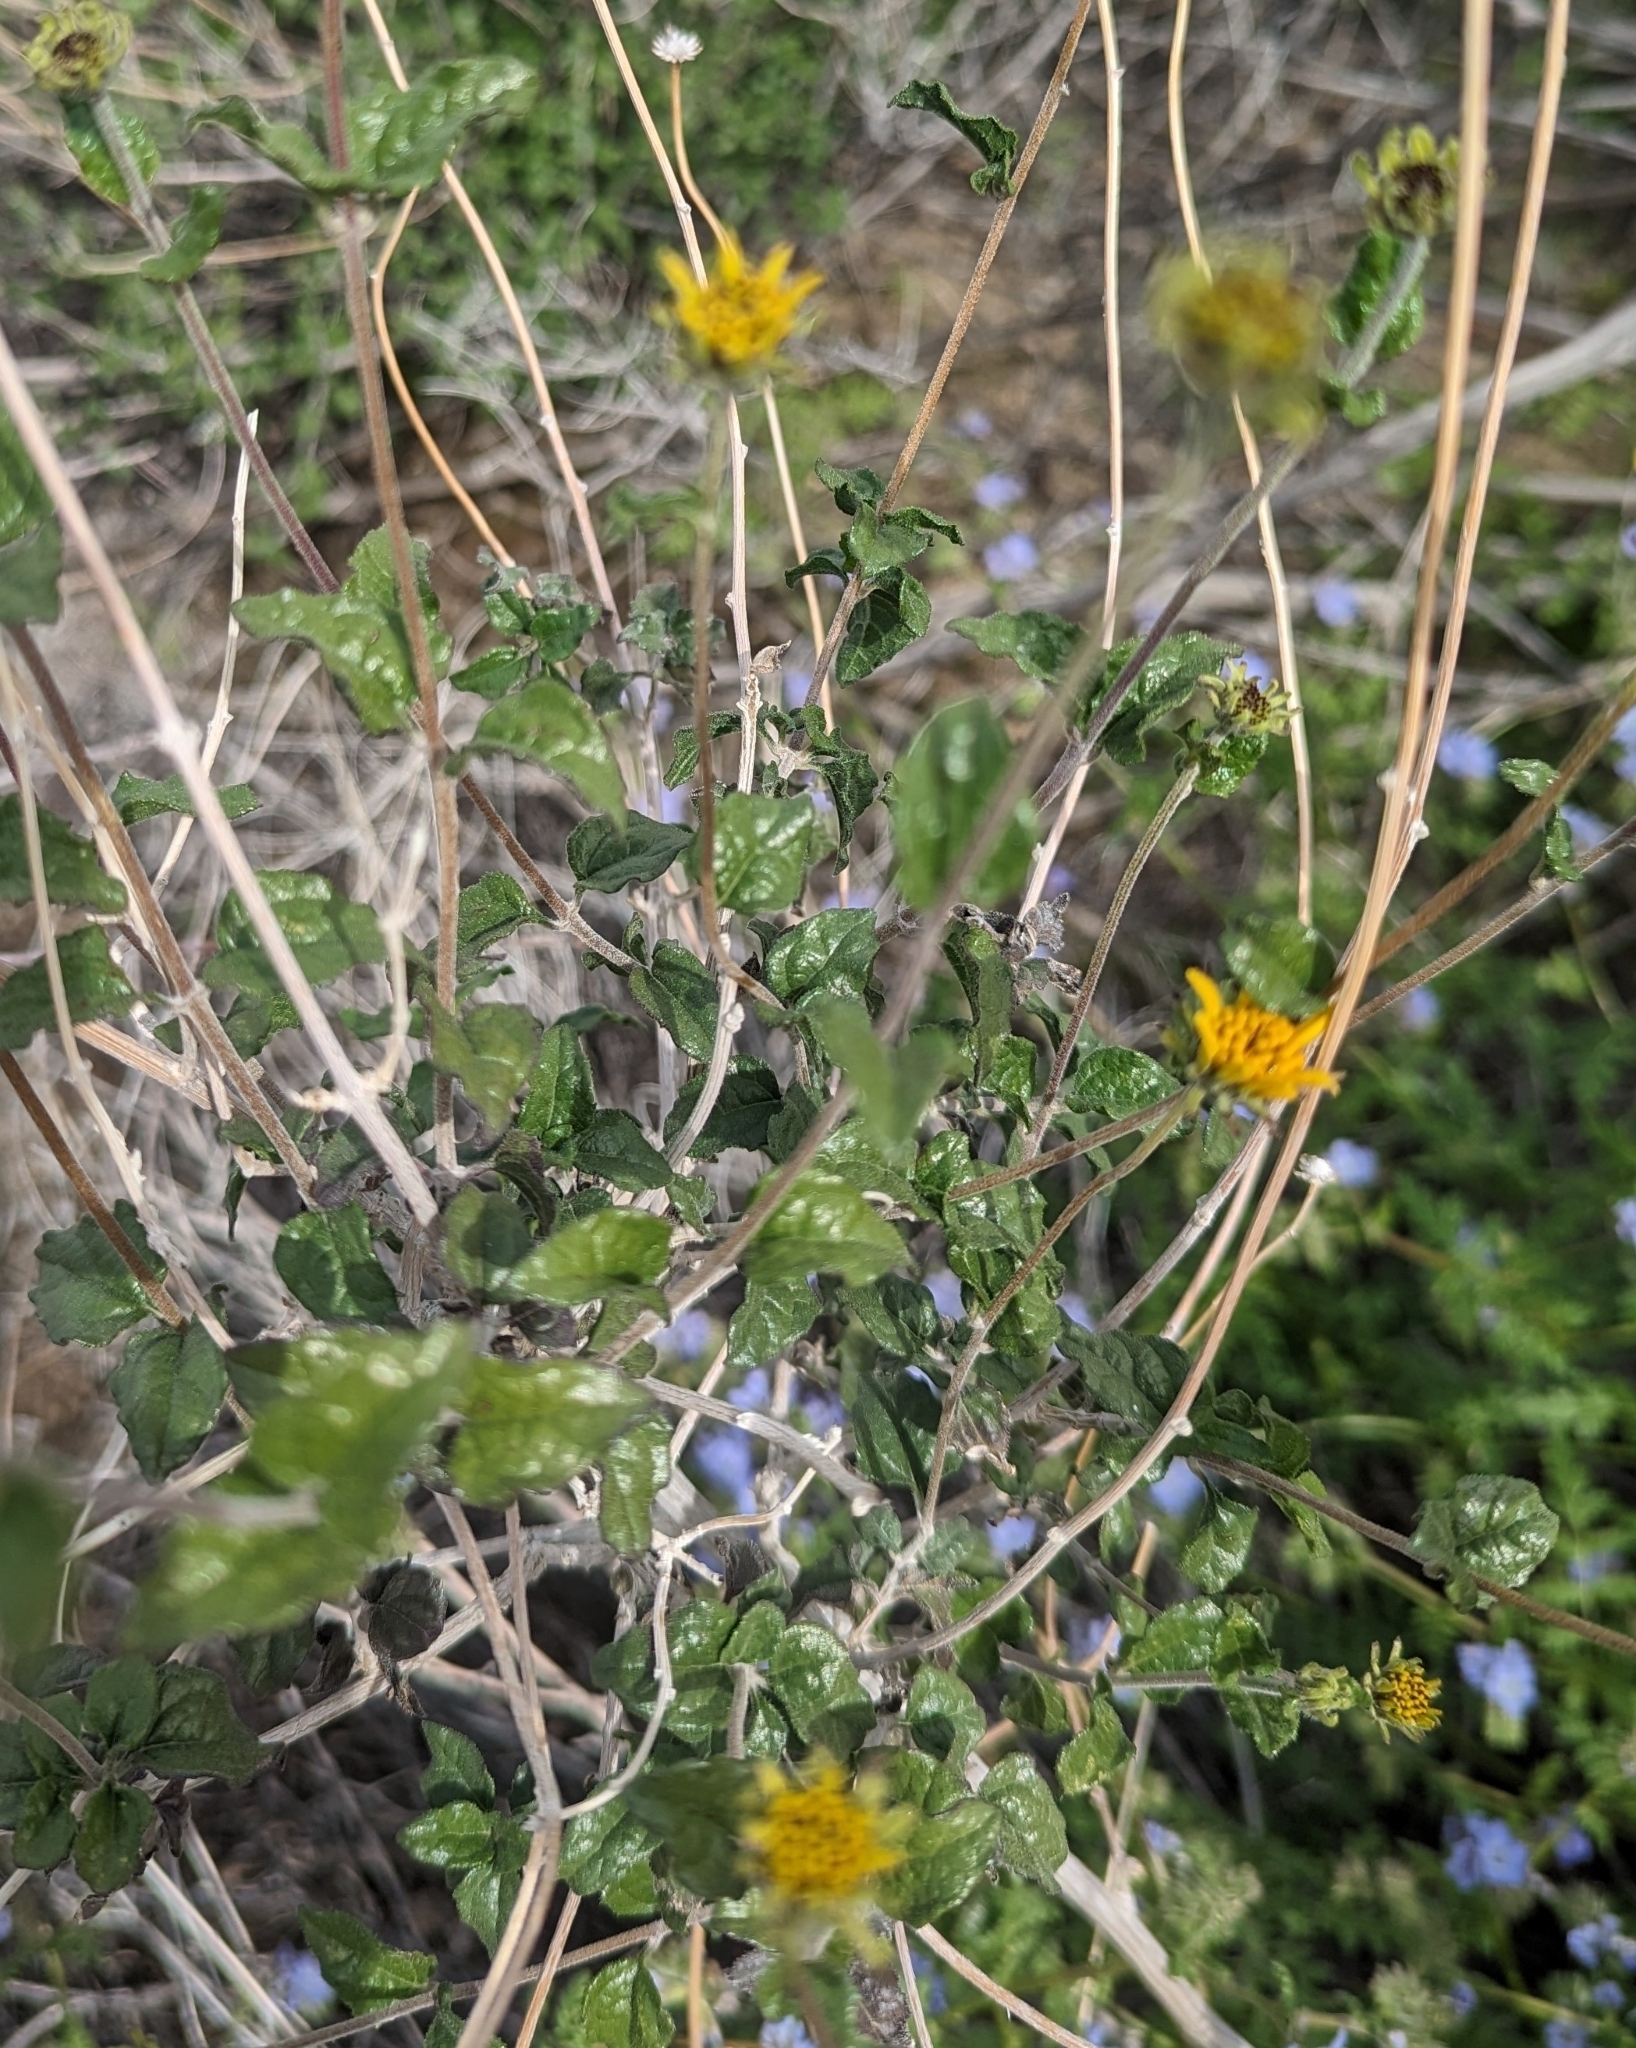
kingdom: Plantae
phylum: Tracheophyta
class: Magnoliopsida
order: Asterales
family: Asteraceae
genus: Bahiopsis
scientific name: Bahiopsis parishii
